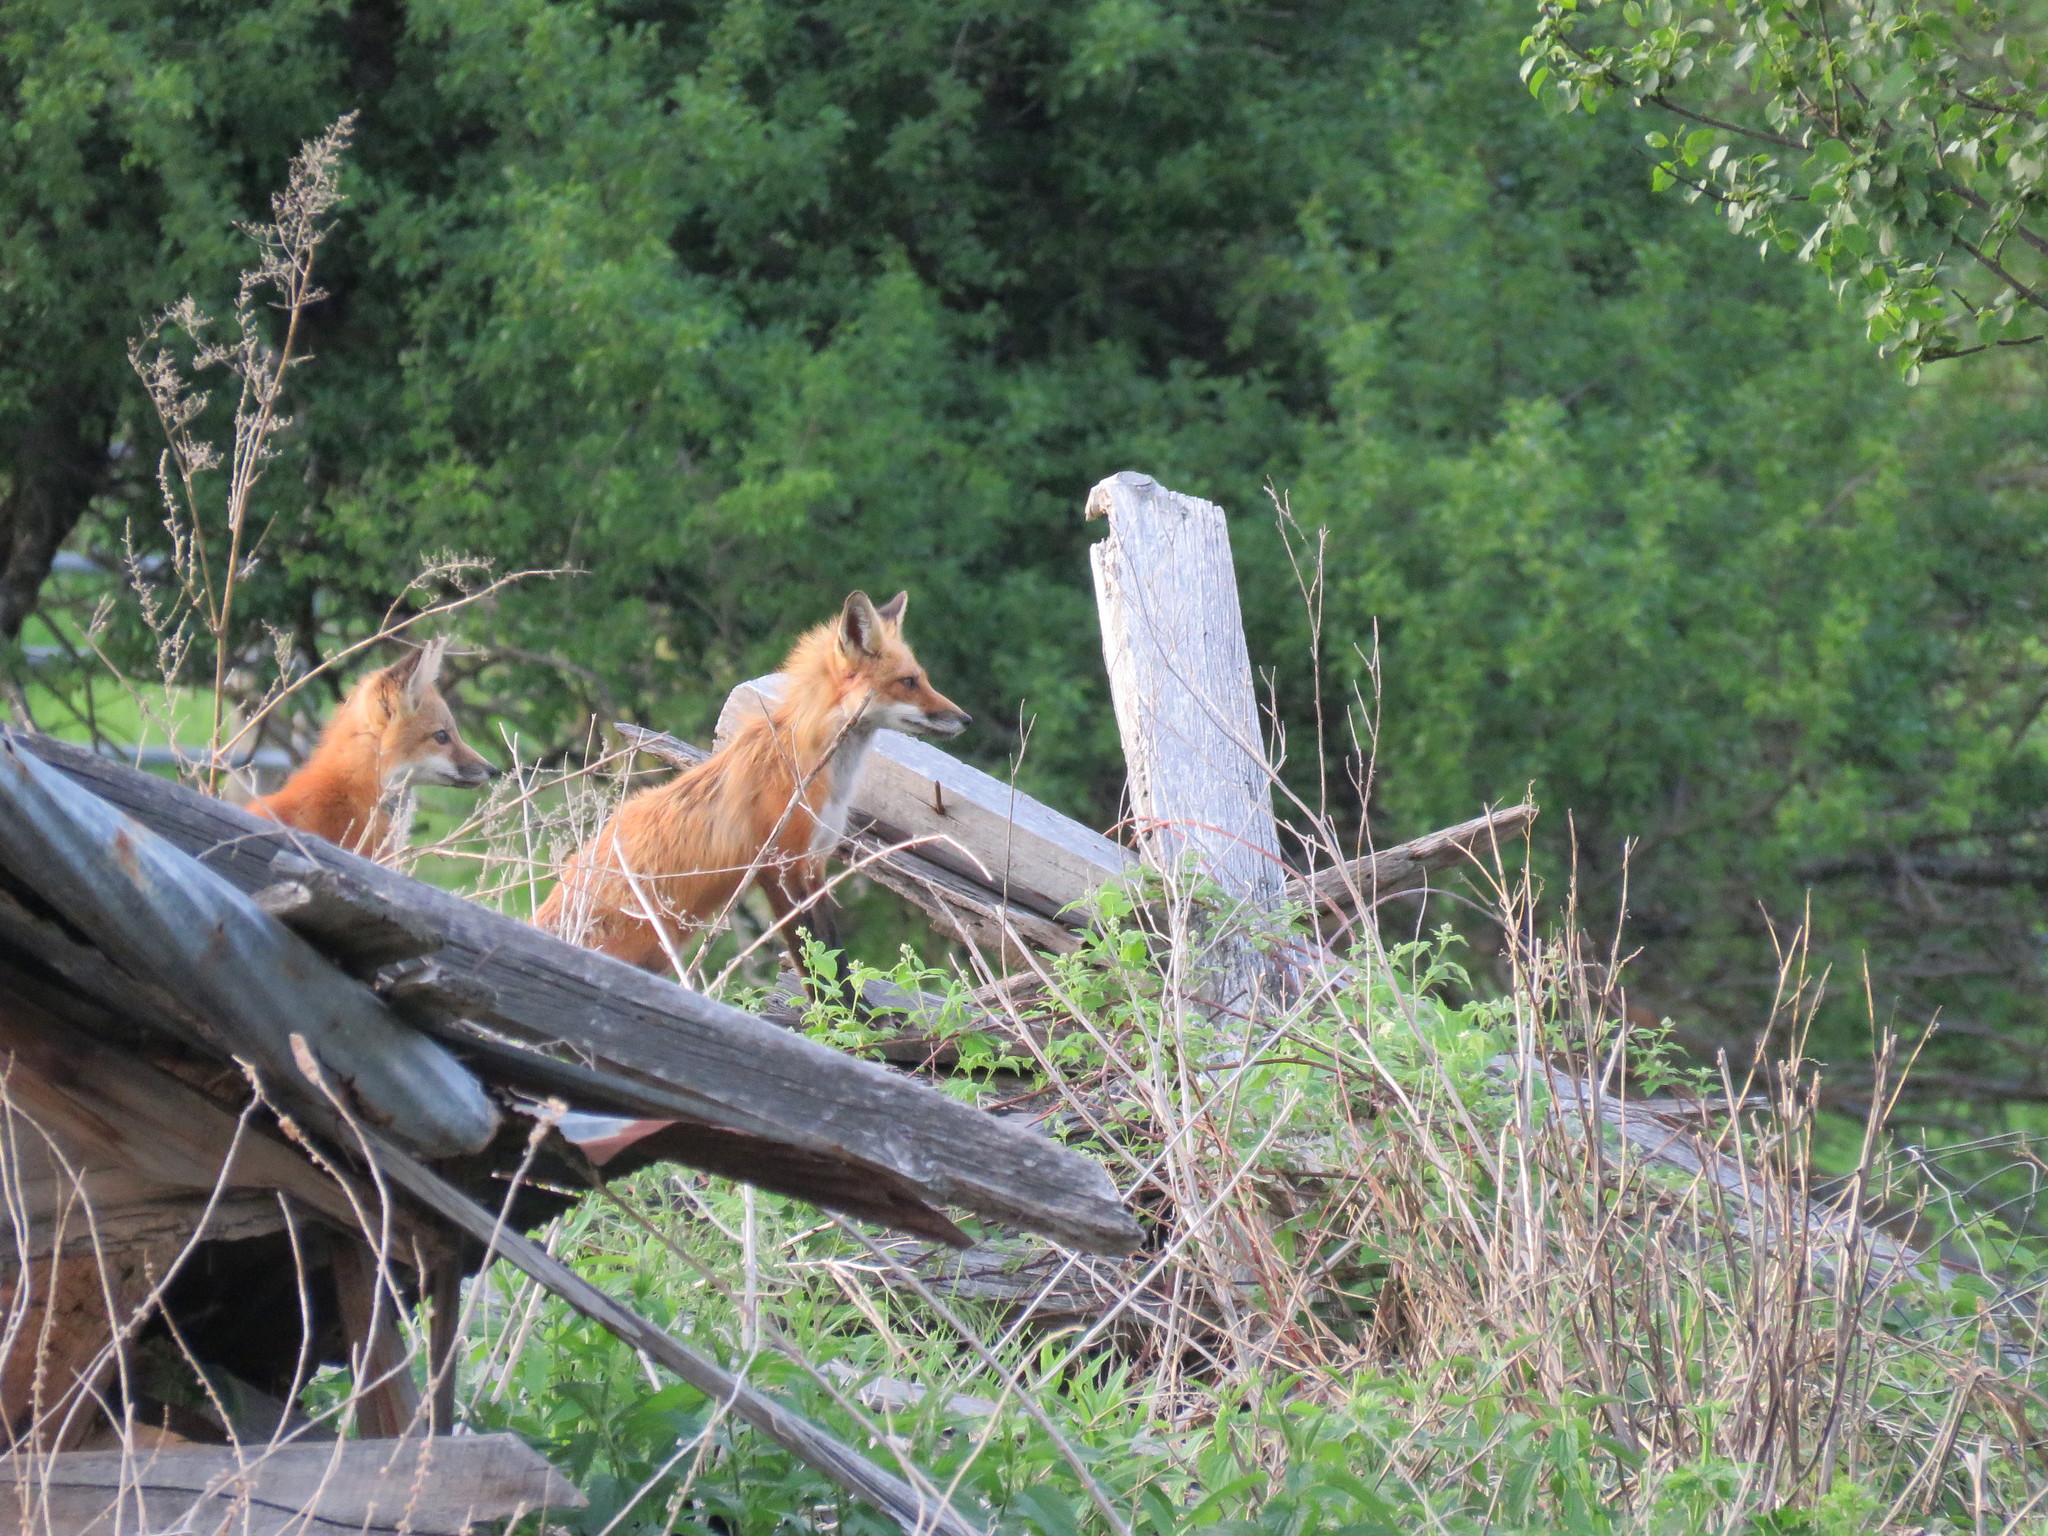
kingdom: Animalia
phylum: Chordata
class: Mammalia
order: Carnivora
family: Canidae
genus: Vulpes
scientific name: Vulpes vulpes
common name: Red fox
